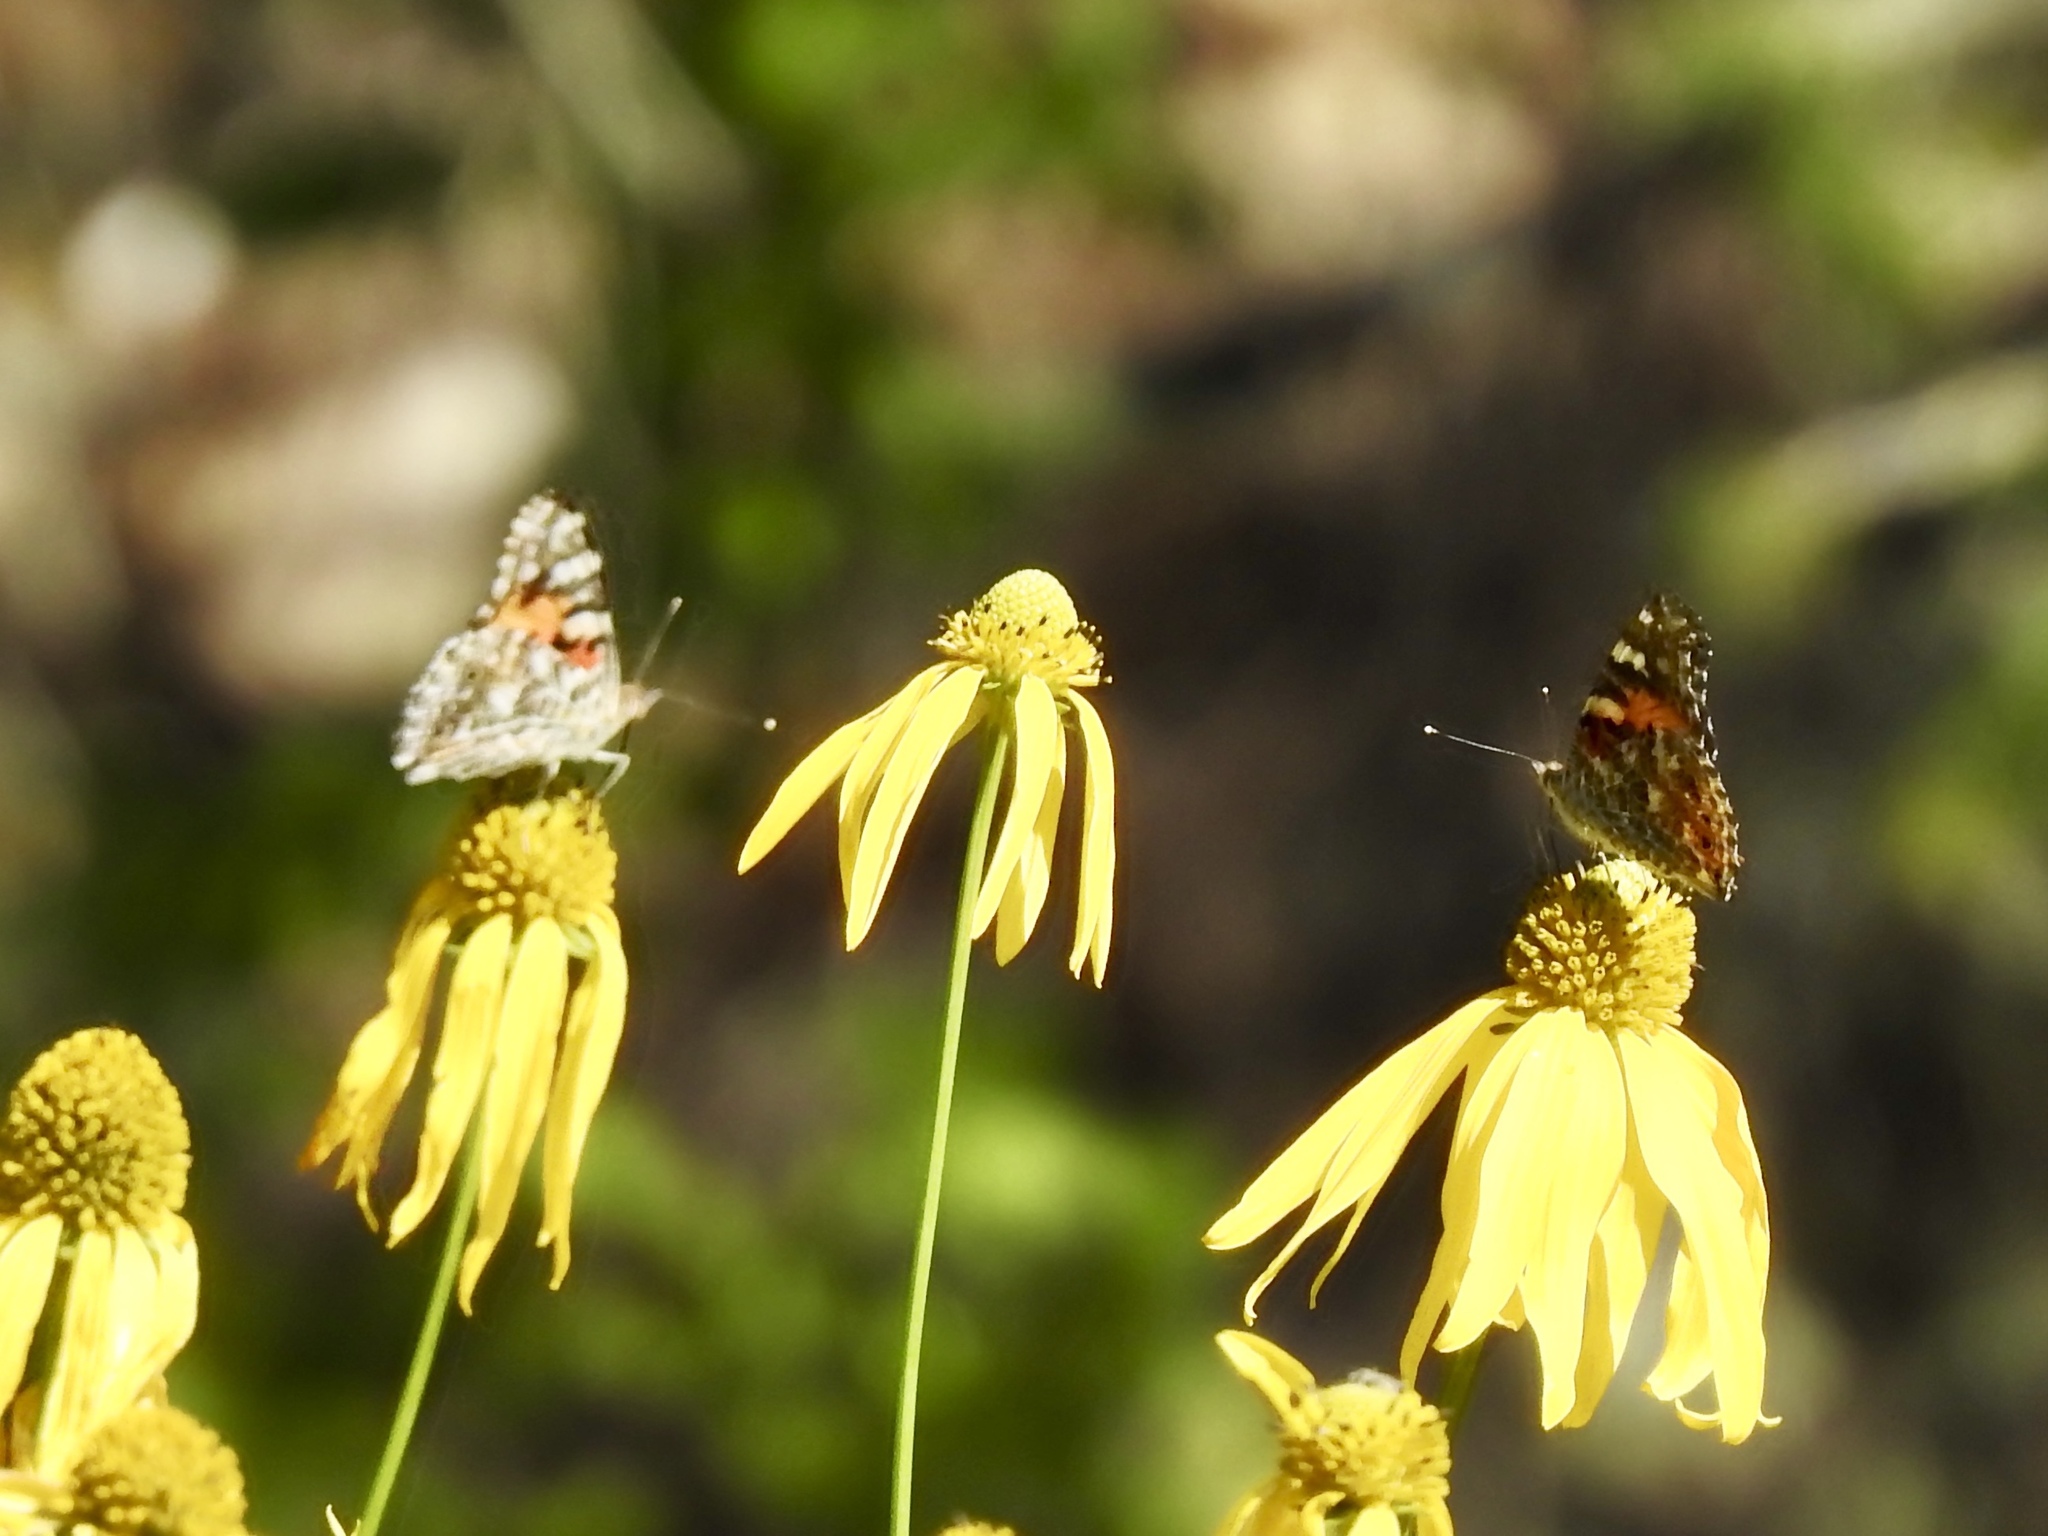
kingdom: Animalia
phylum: Arthropoda
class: Insecta
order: Lepidoptera
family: Nymphalidae
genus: Vanessa
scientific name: Vanessa cardui
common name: Painted lady
